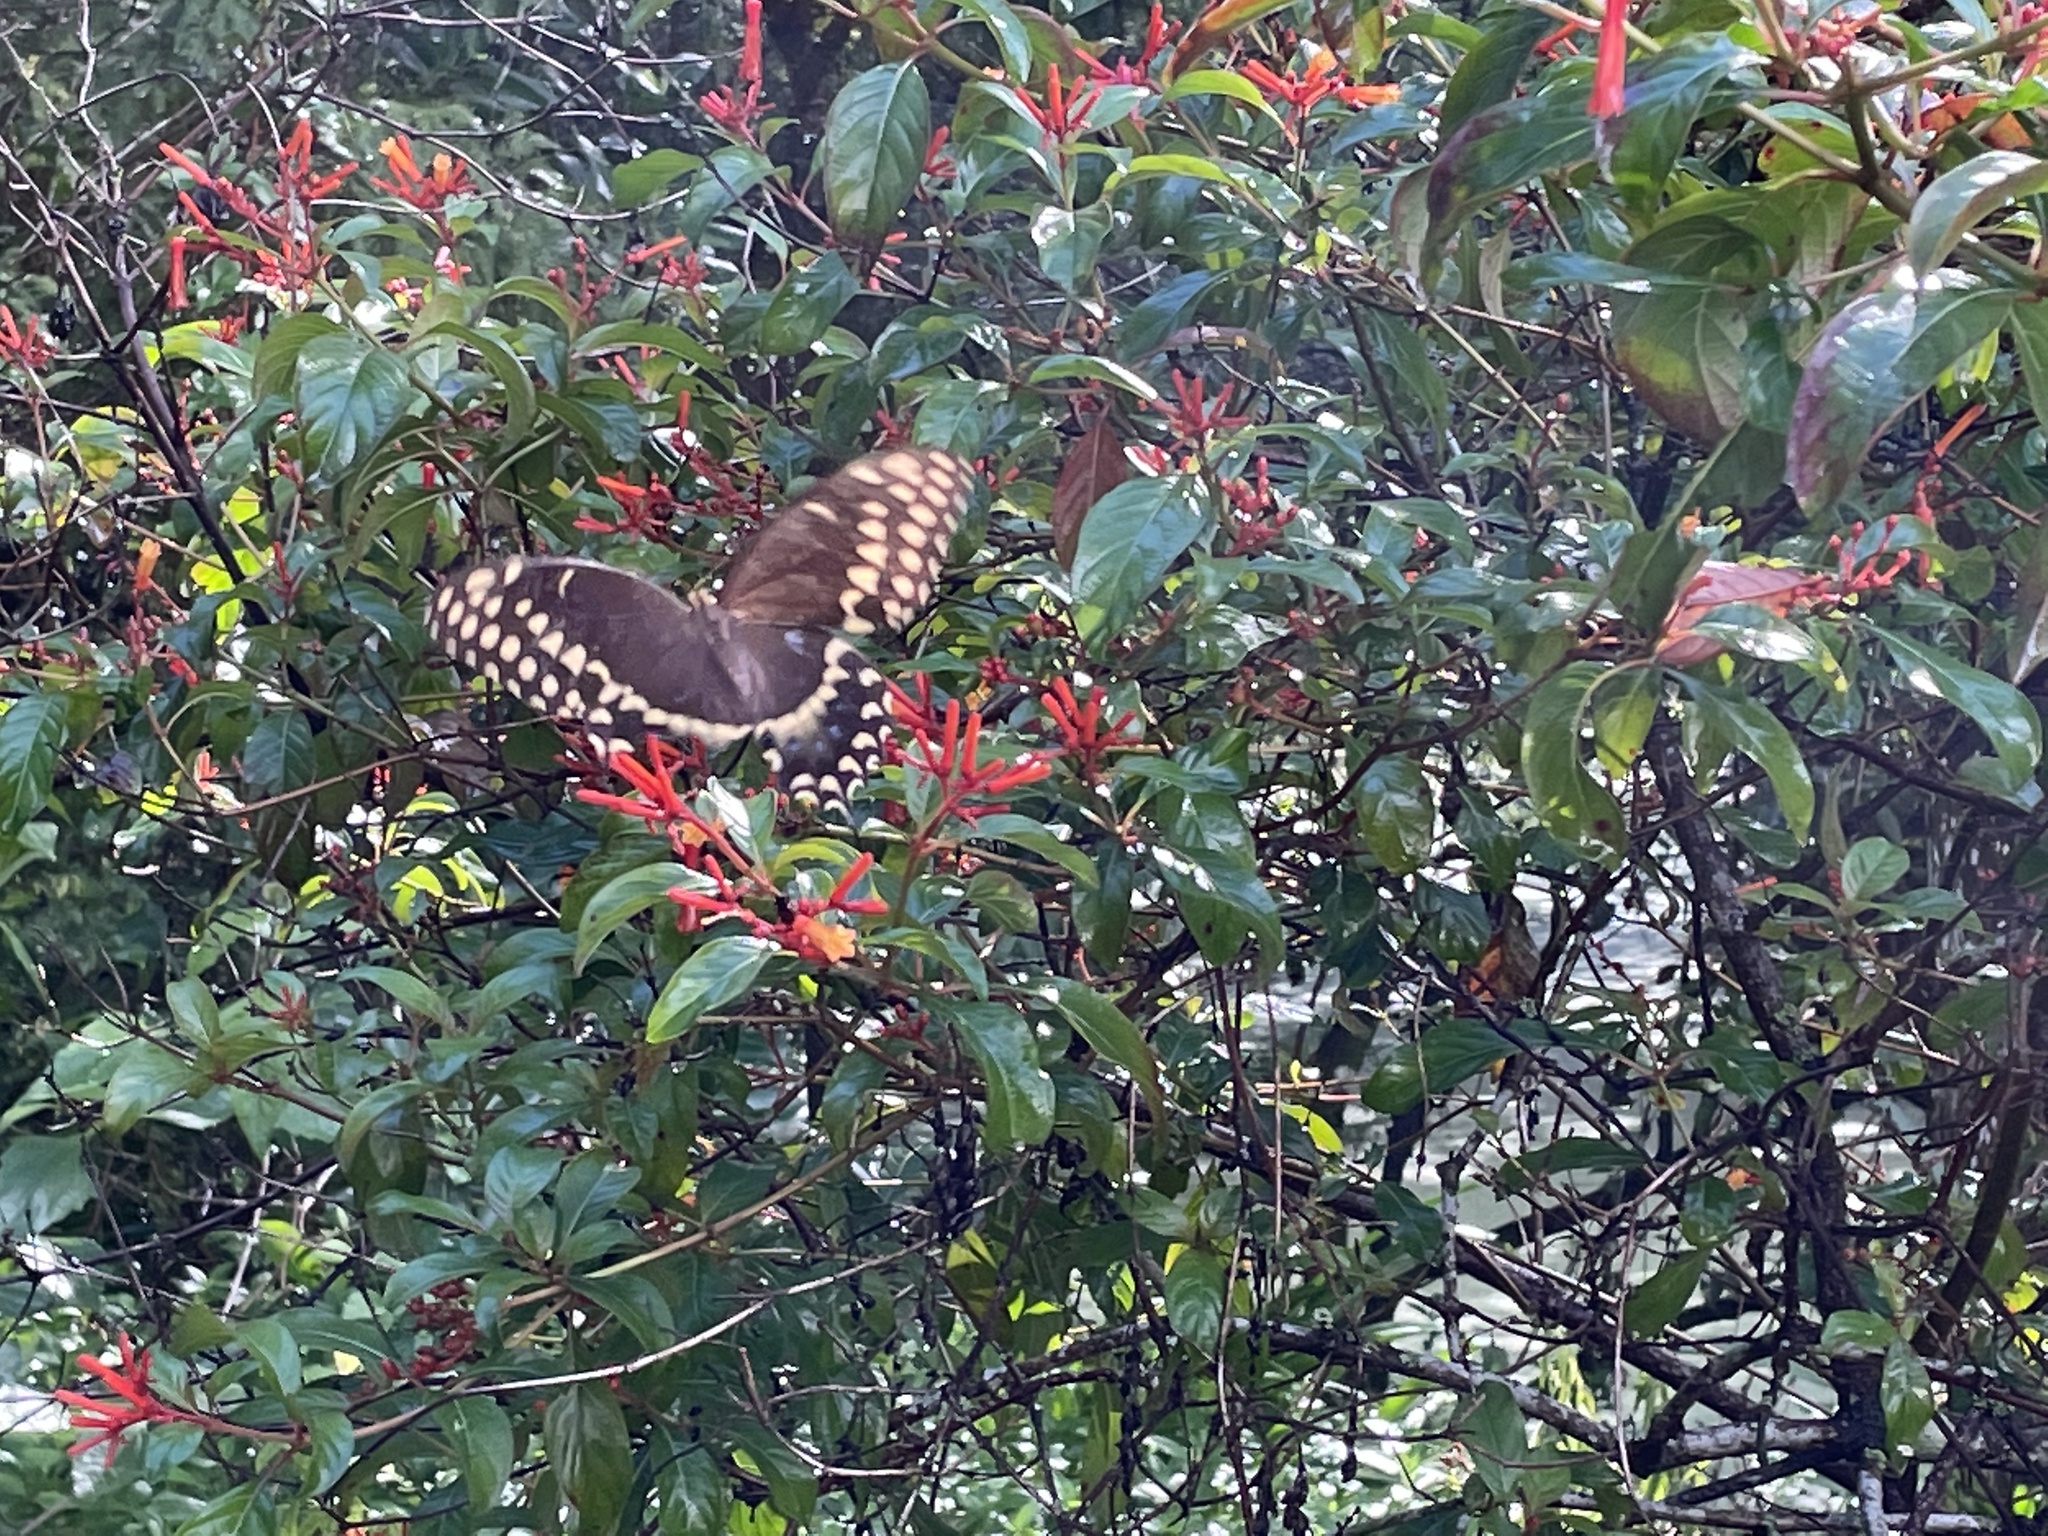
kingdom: Animalia
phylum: Arthropoda
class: Insecta
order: Lepidoptera
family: Papilionidae
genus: Papilio
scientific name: Papilio palamedes
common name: Palamedes swallowtail
